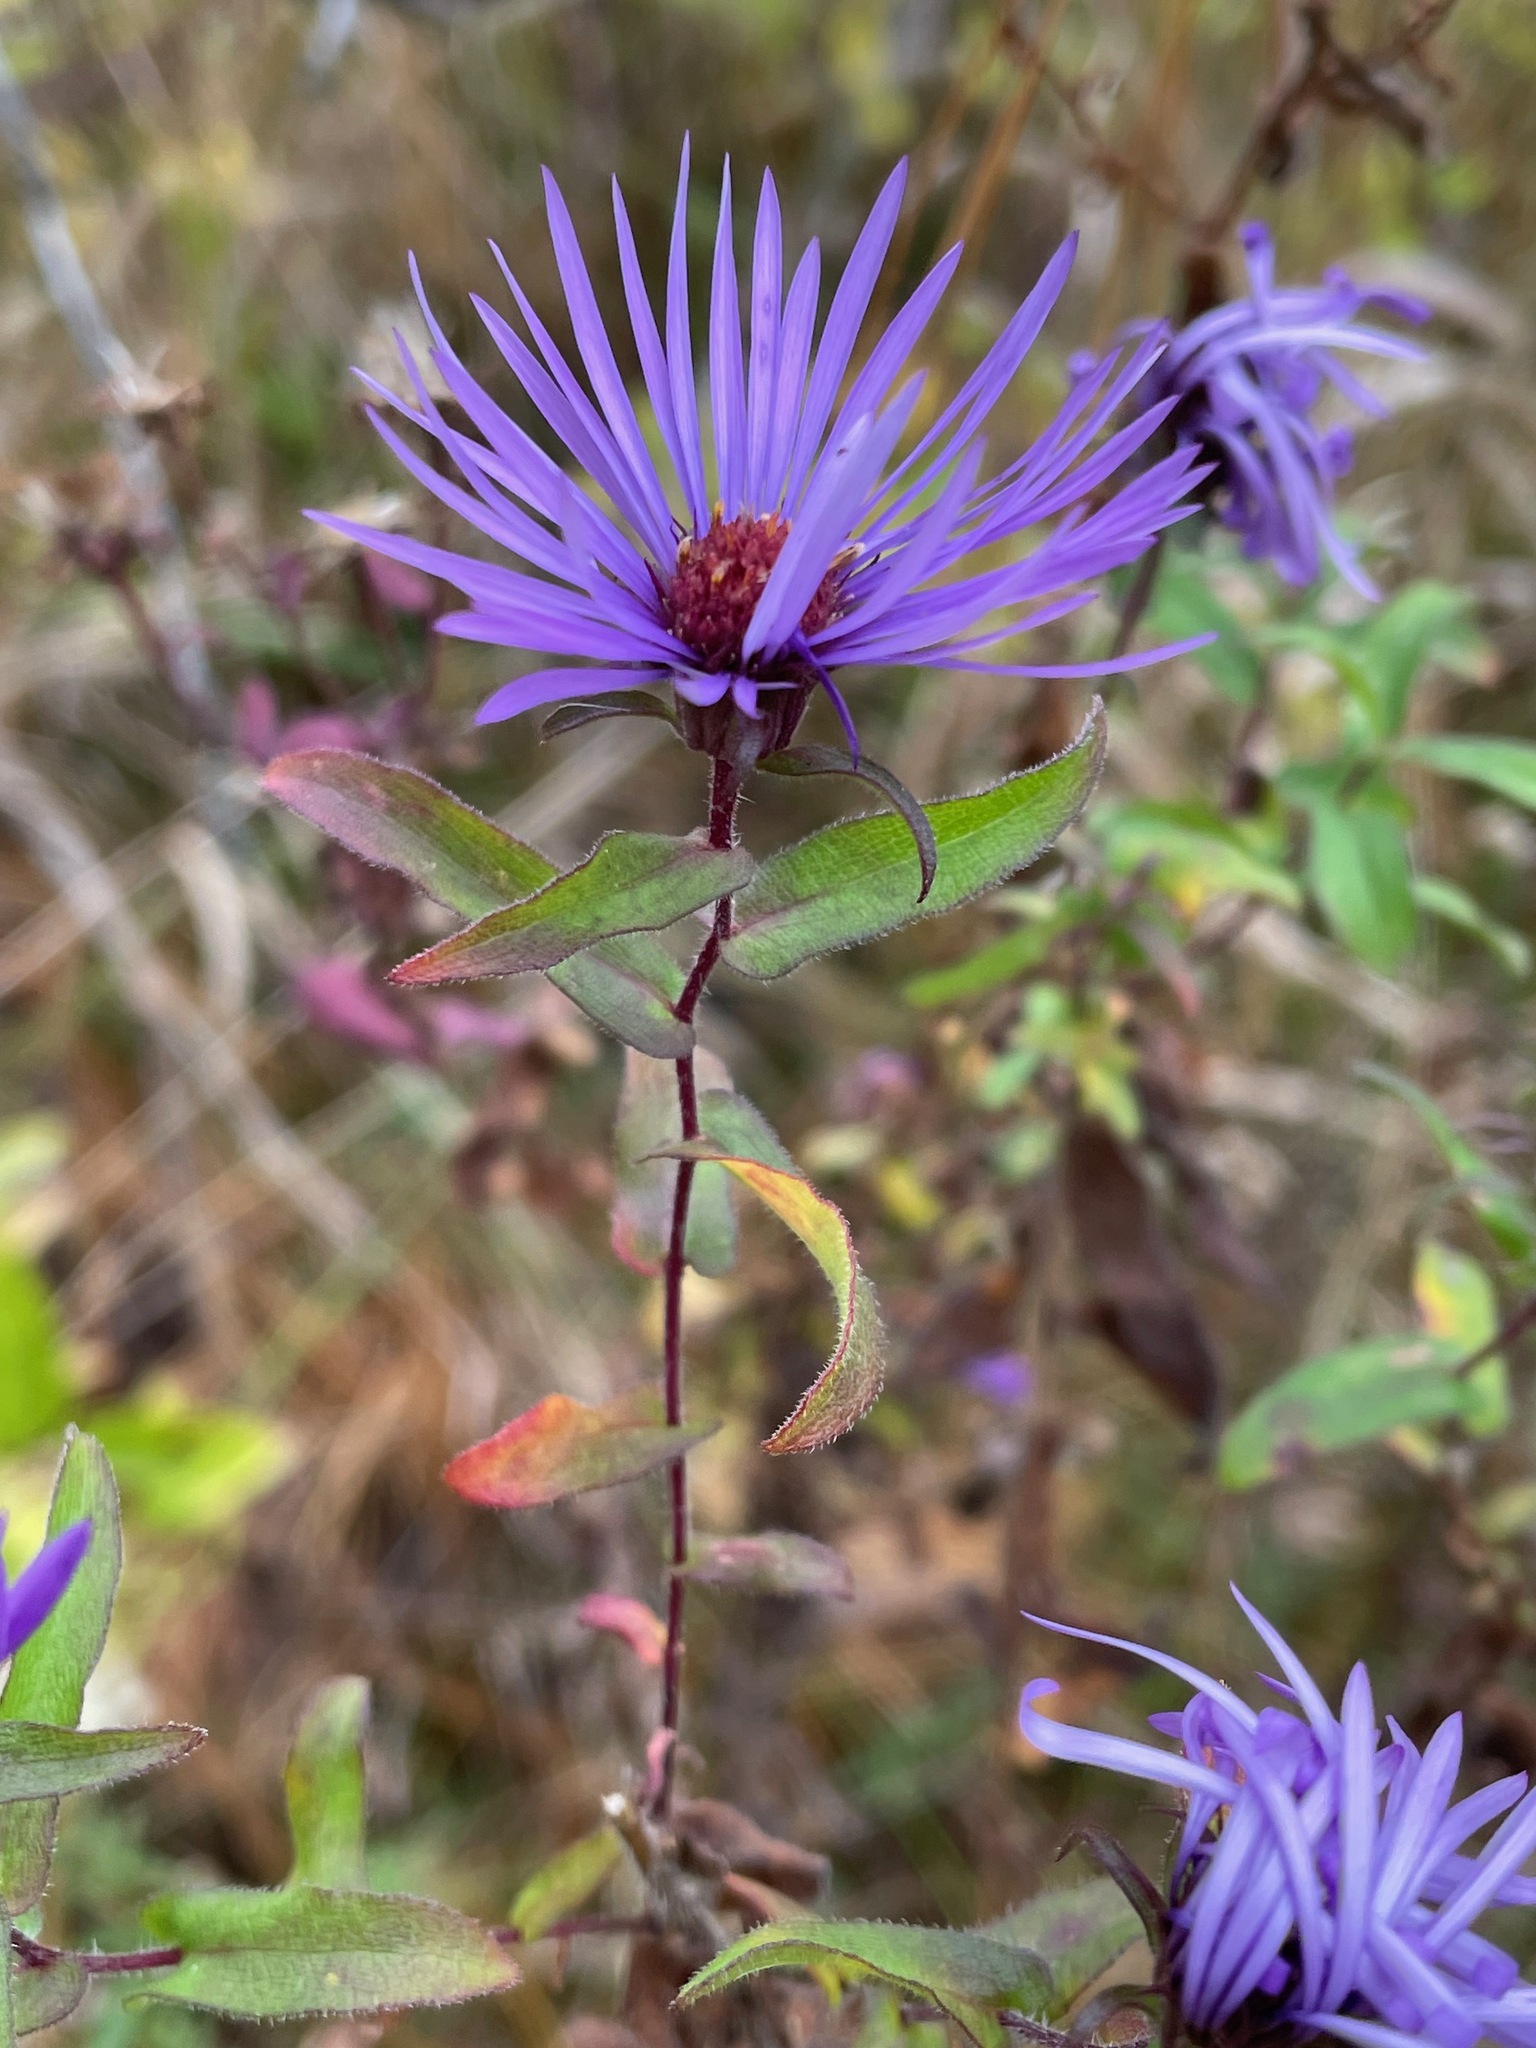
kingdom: Plantae
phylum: Tracheophyta
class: Magnoliopsida
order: Asterales
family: Asteraceae
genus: Symphyotrichum
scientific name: Symphyotrichum novae-angliae
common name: Michaelmas daisy
